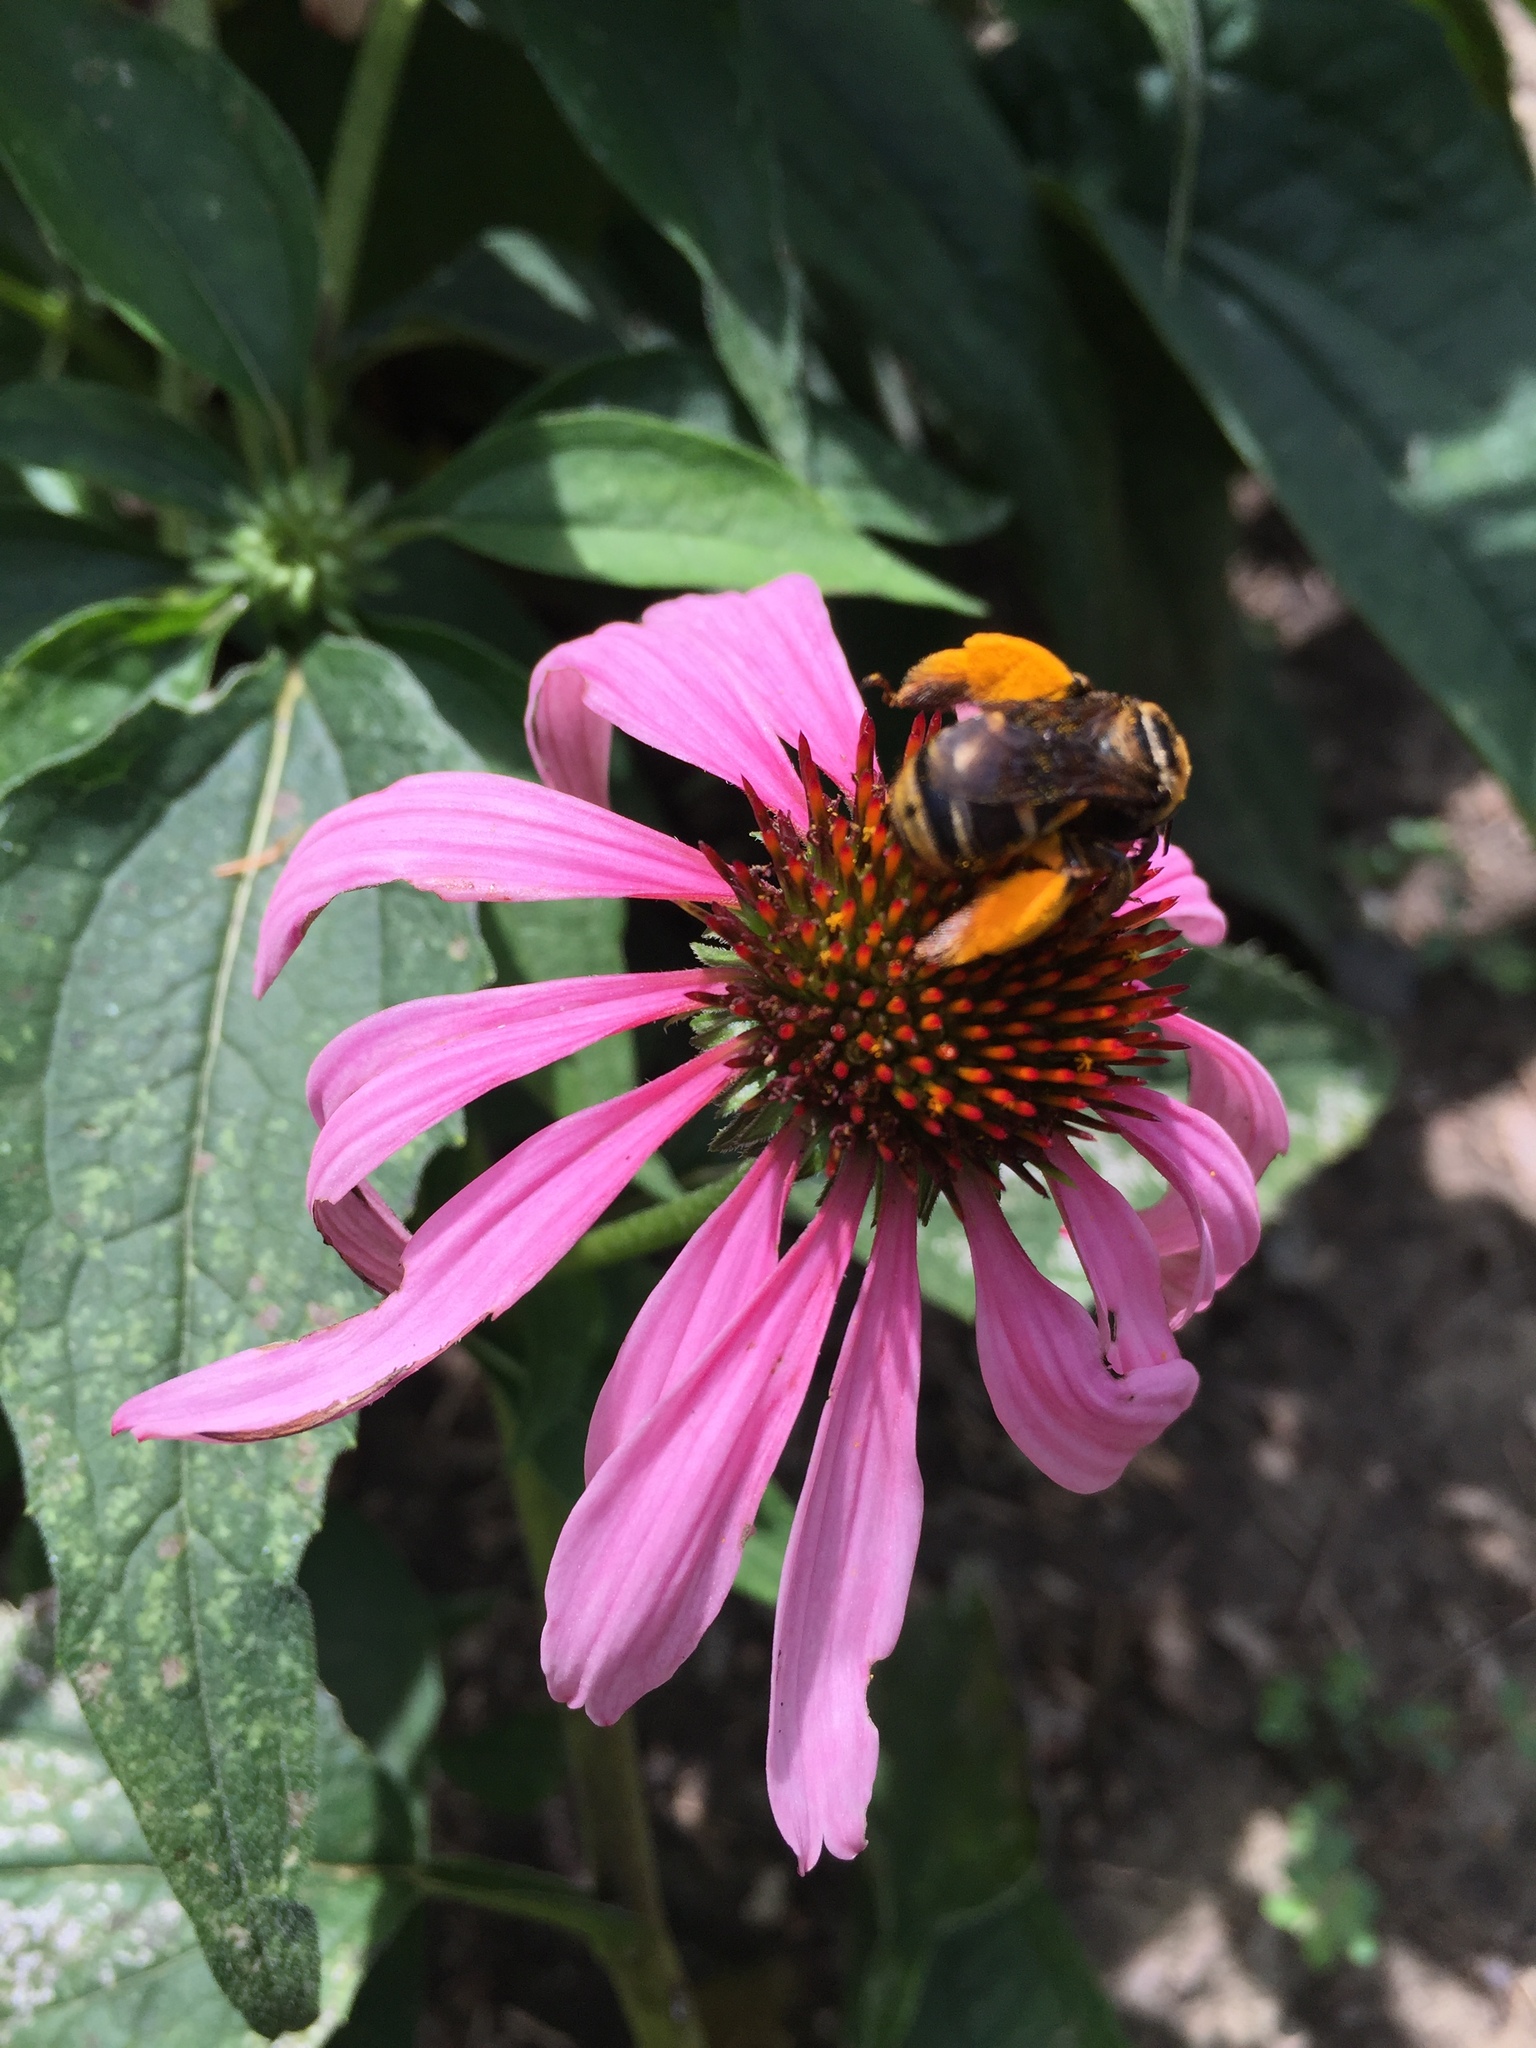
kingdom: Animalia
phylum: Arthropoda
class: Insecta
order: Hymenoptera
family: Apidae
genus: Svastra
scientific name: Svastra obliqua
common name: Oblique longhorn
